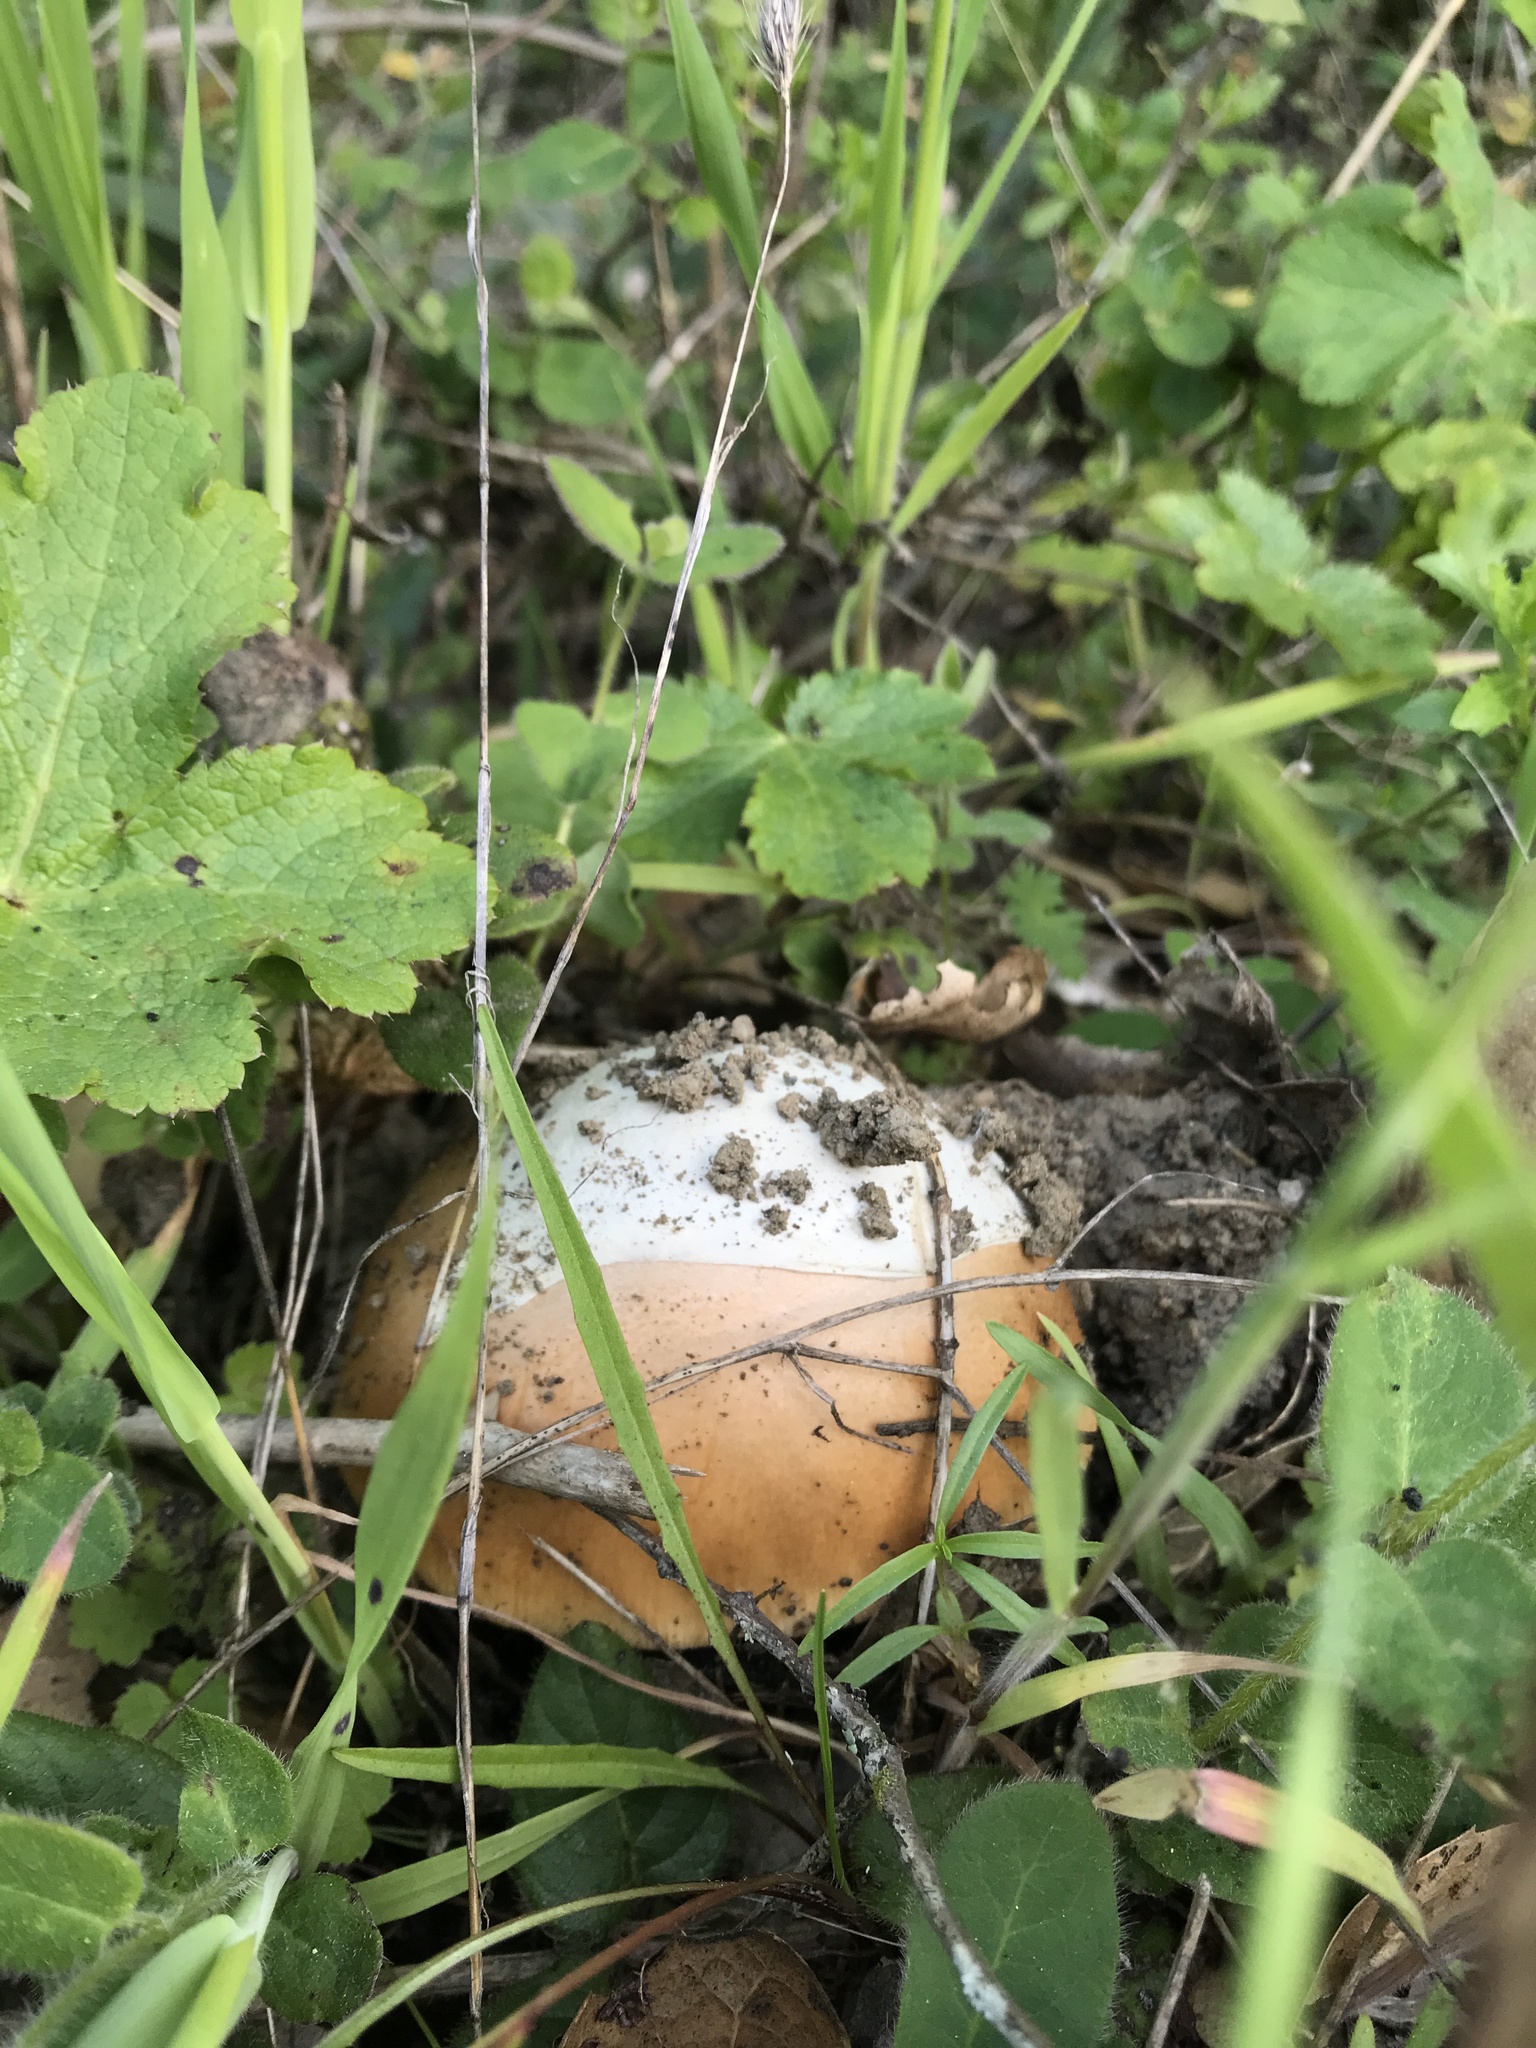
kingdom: Fungi
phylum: Basidiomycota
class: Agaricomycetes
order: Agaricales
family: Amanitaceae
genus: Amanita
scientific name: Amanita velosa
